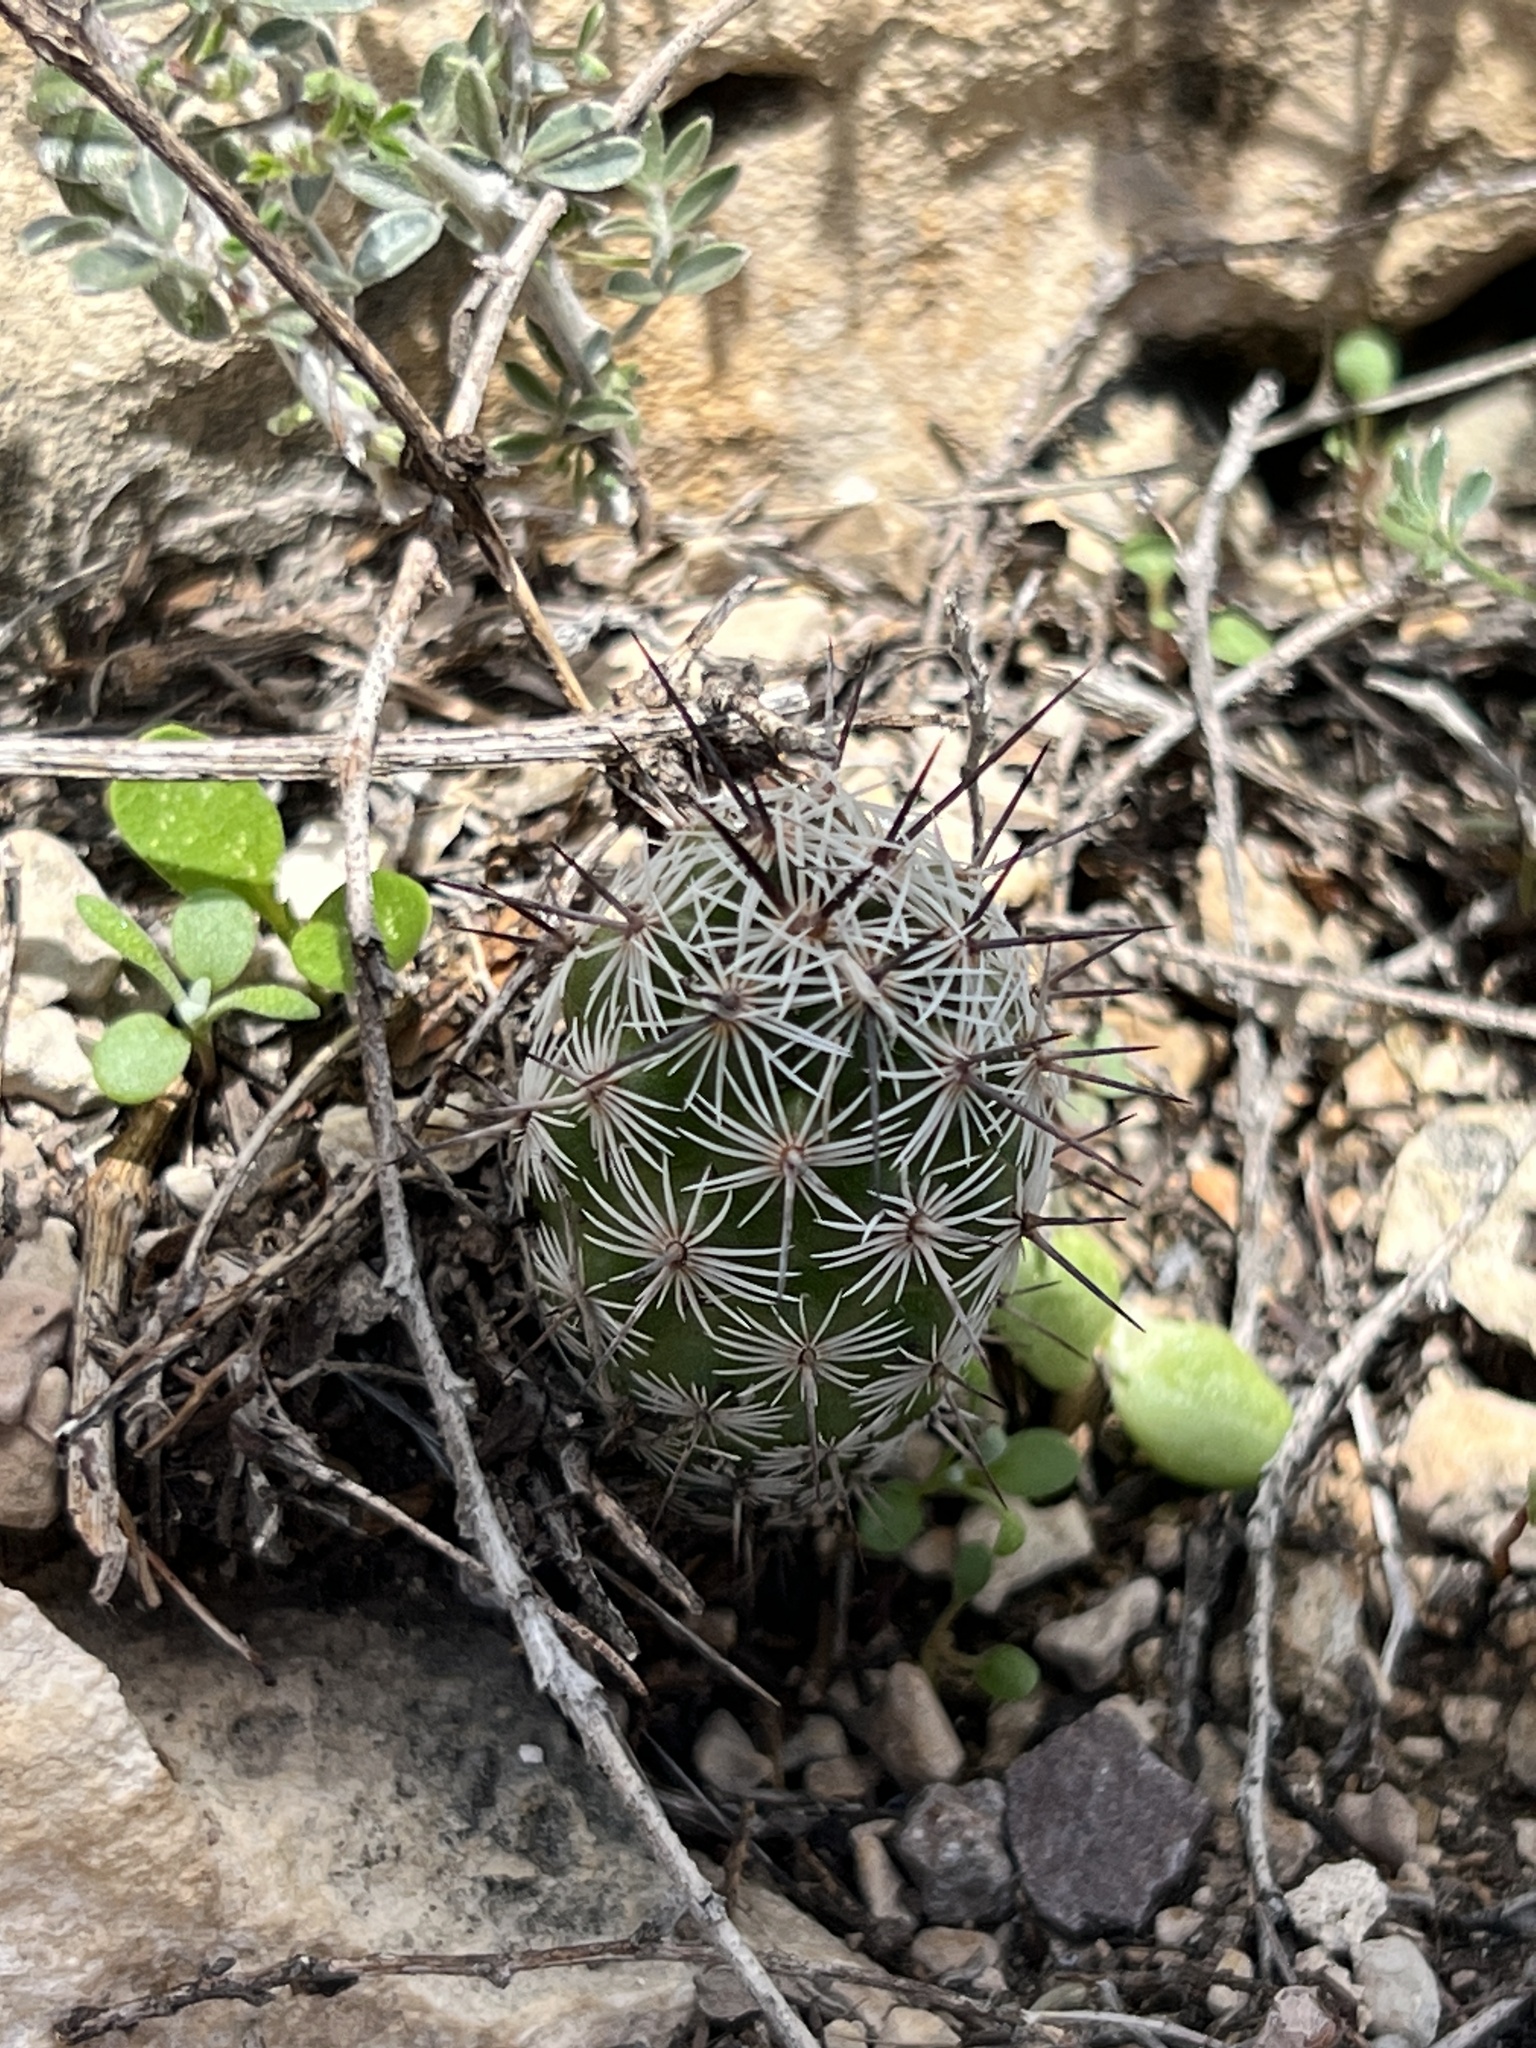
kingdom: Plantae
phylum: Tracheophyta
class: Magnoliopsida
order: Caryophyllales
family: Cactaceae
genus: Cochemiea
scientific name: Cochemiea conoidea
